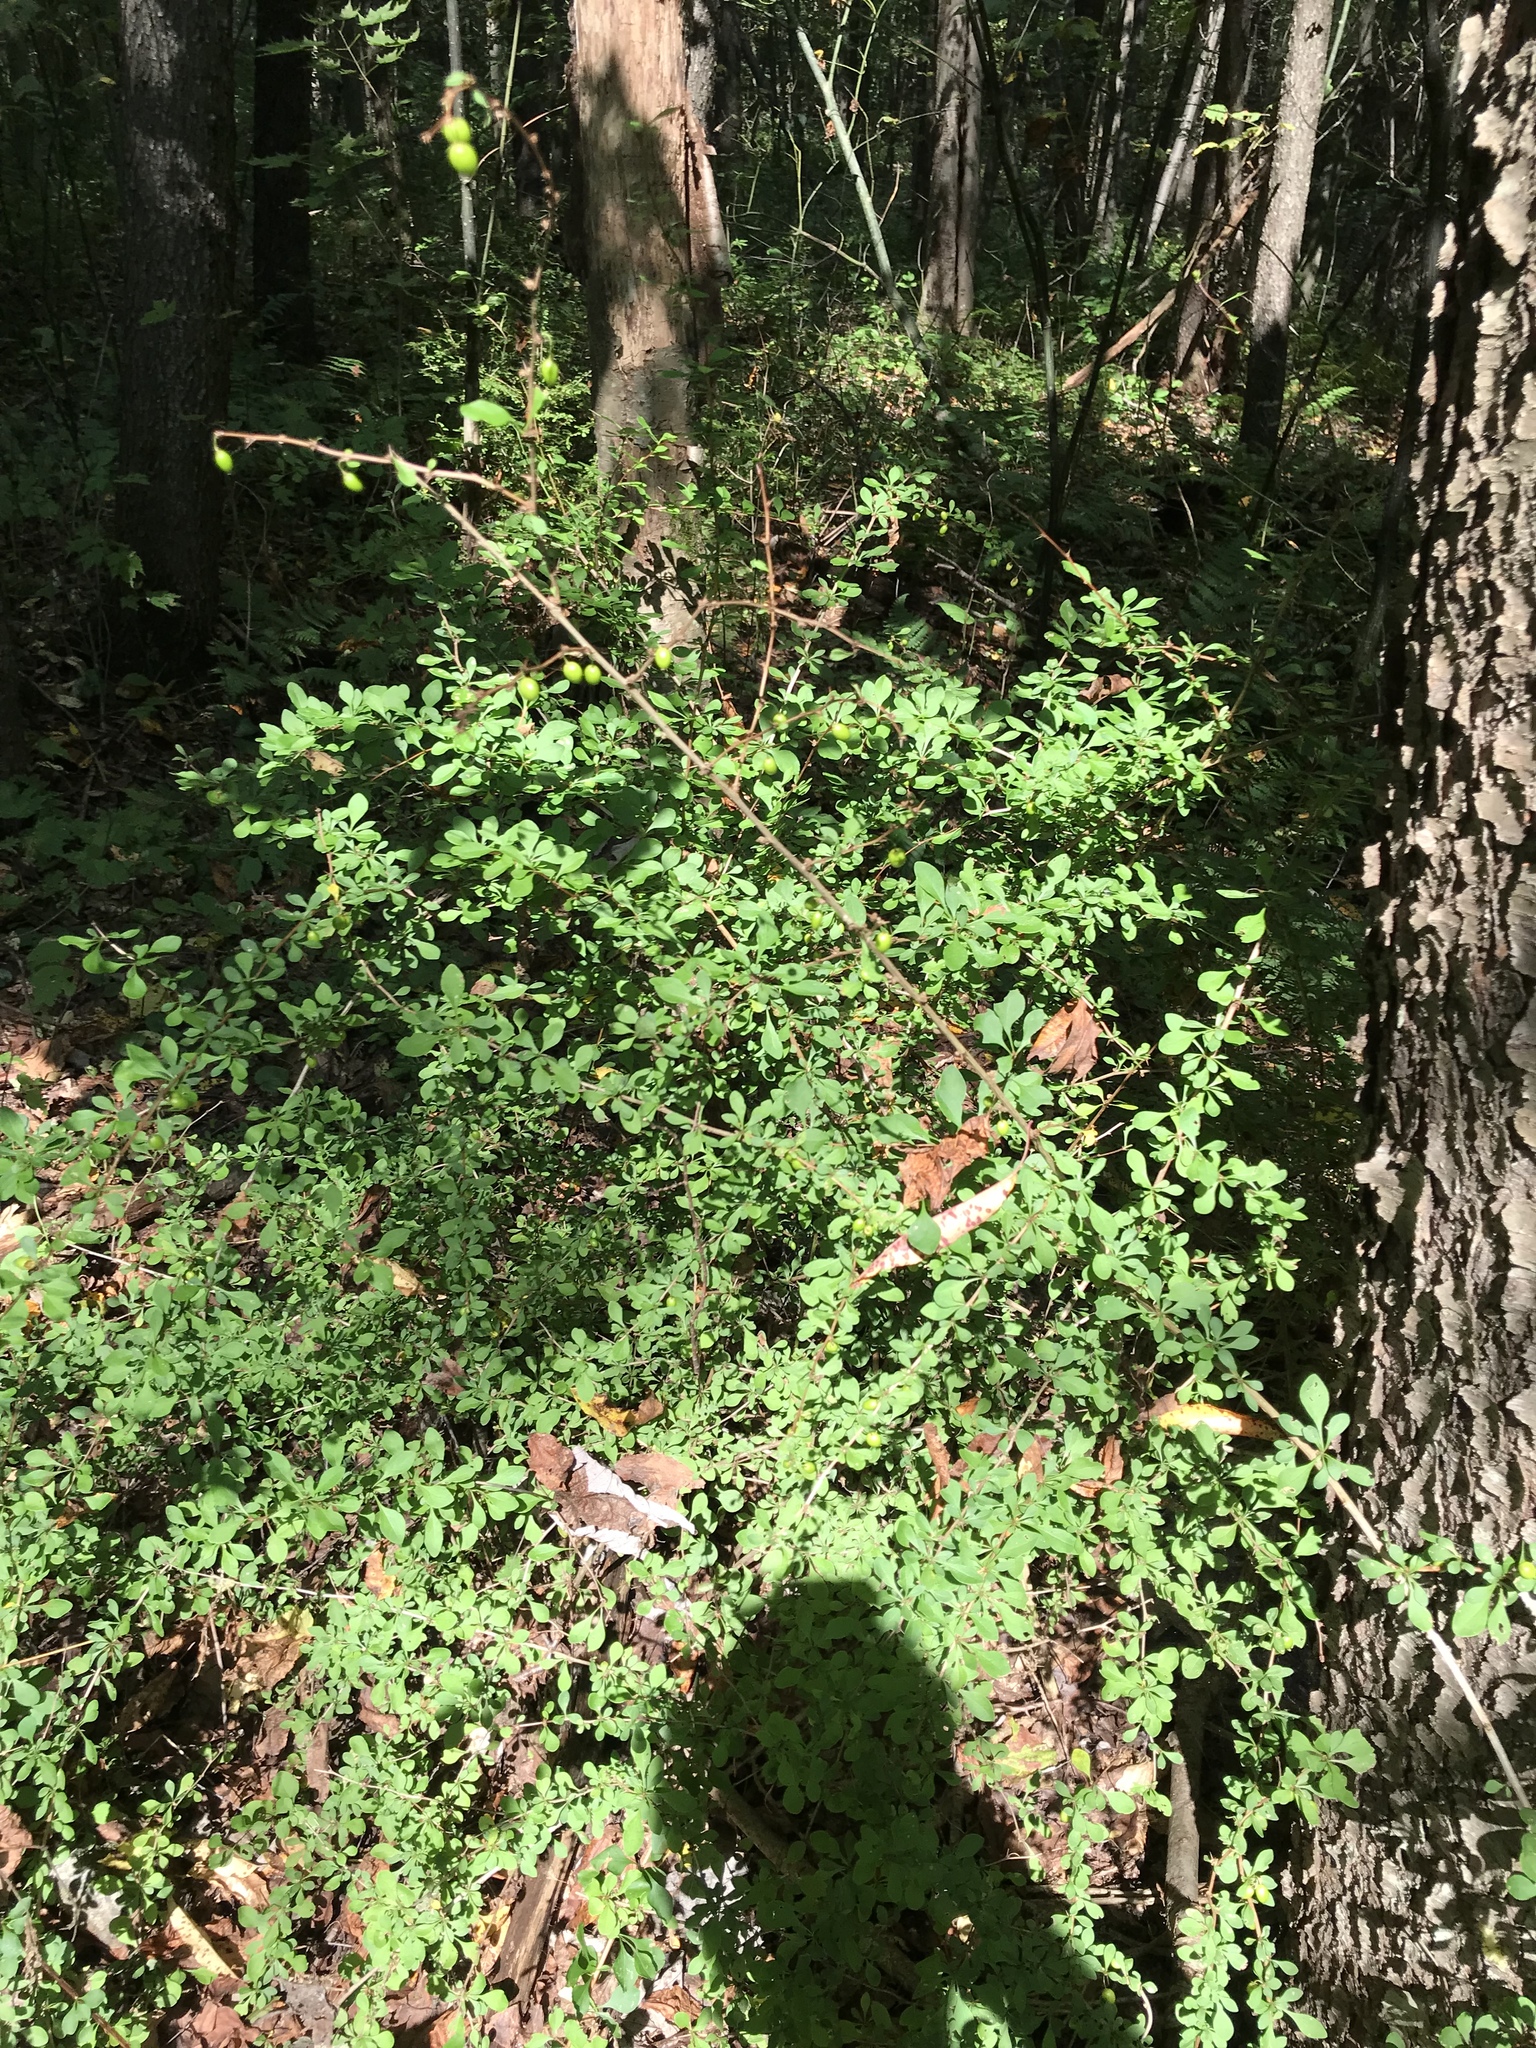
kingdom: Plantae
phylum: Tracheophyta
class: Magnoliopsida
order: Ranunculales
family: Berberidaceae
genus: Berberis
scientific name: Berberis thunbergii
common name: Japanese barberry
